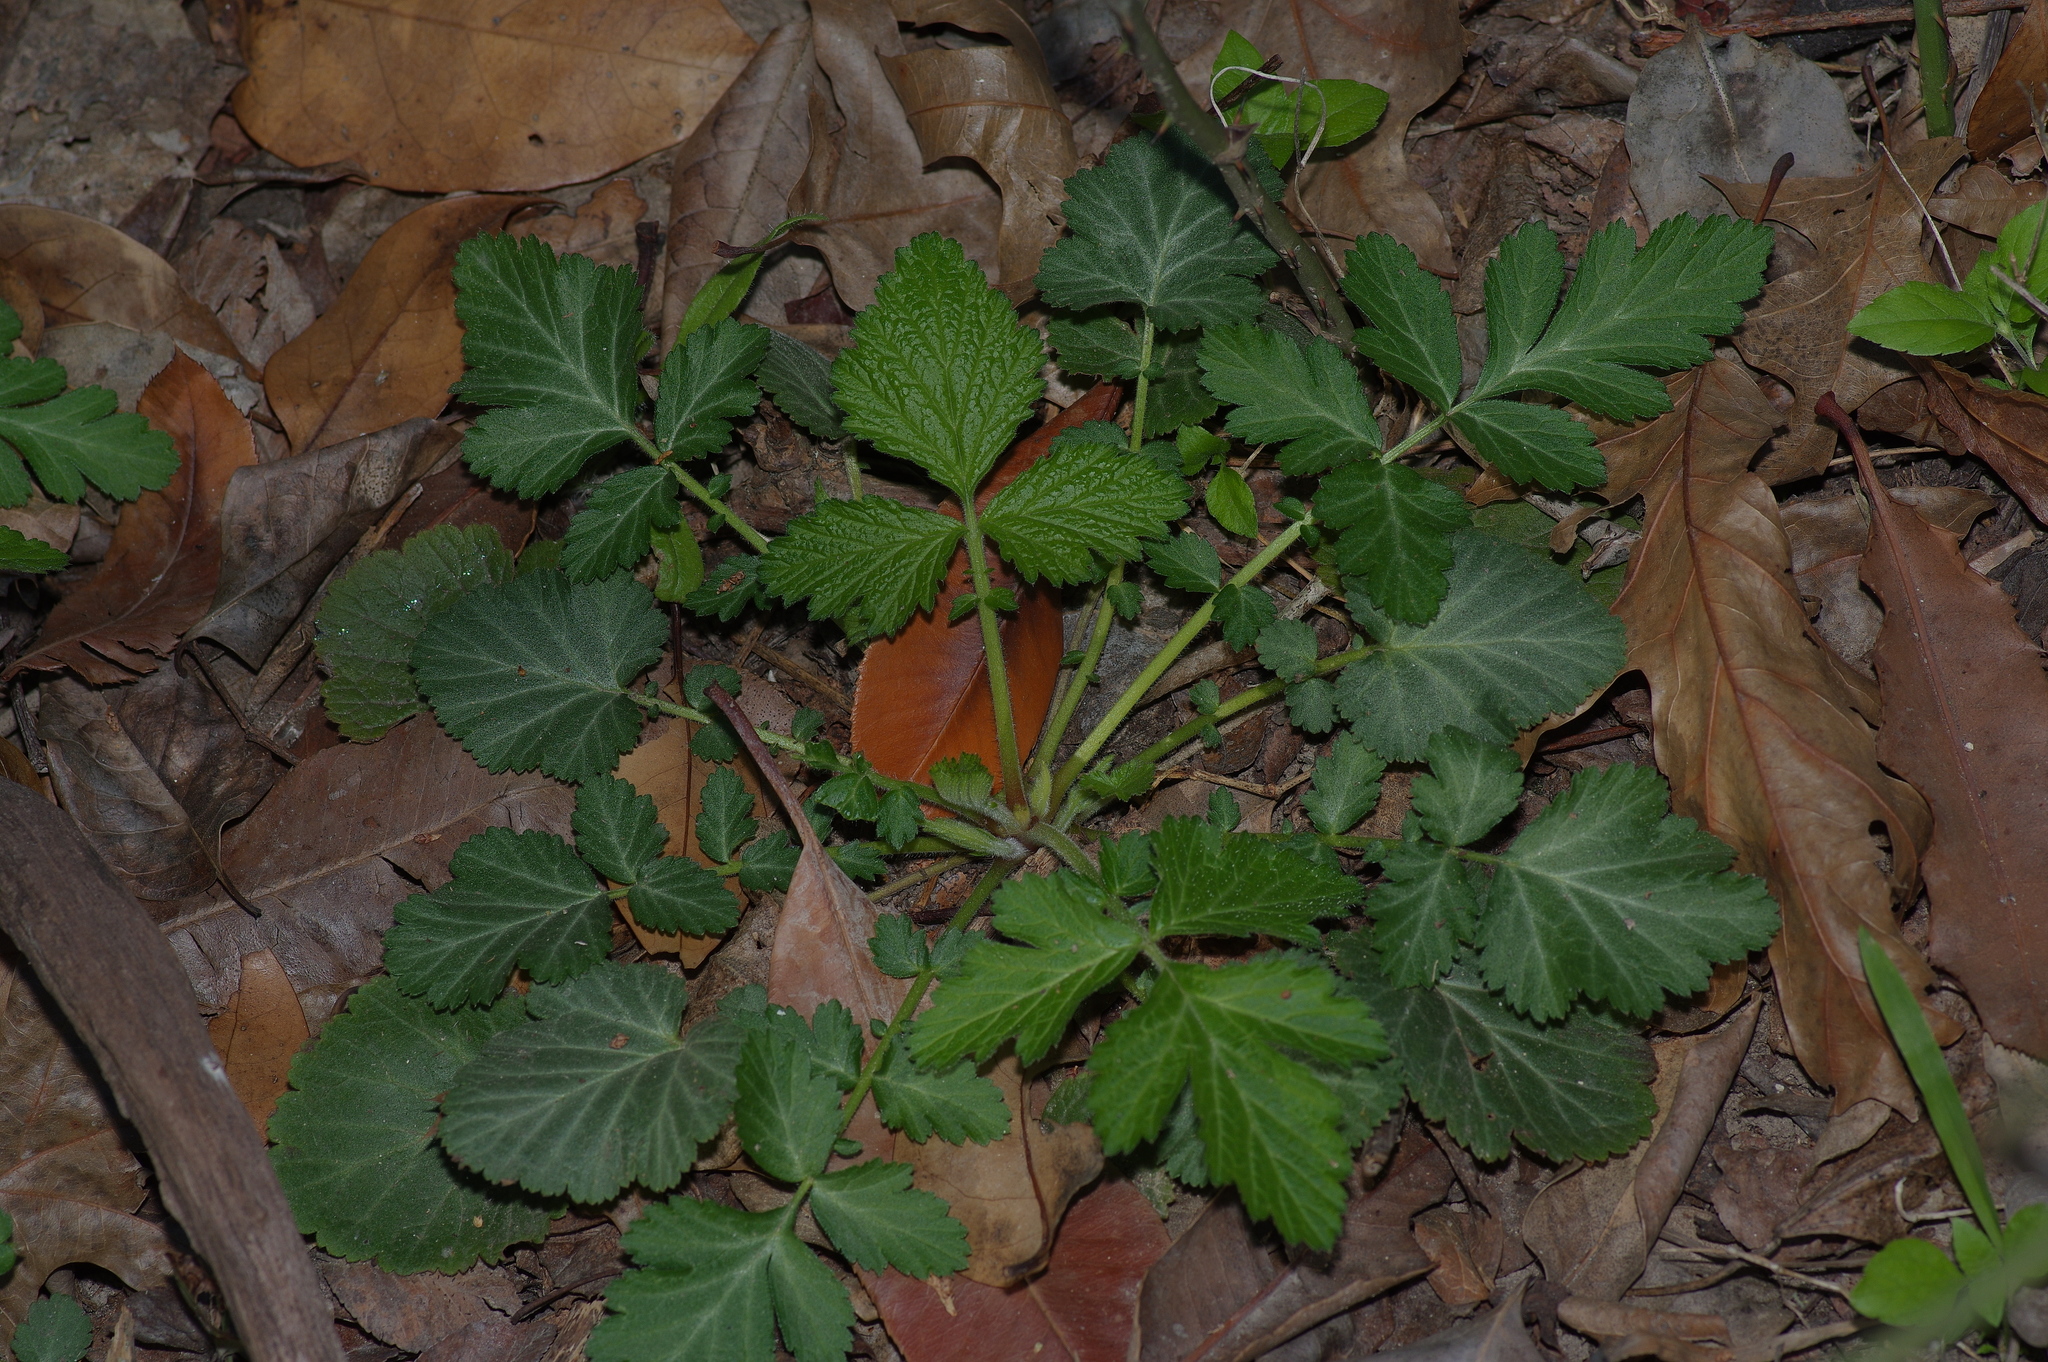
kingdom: Plantae
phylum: Tracheophyta
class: Magnoliopsida
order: Rosales
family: Rosaceae
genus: Geum
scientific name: Geum canadense
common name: White avens
